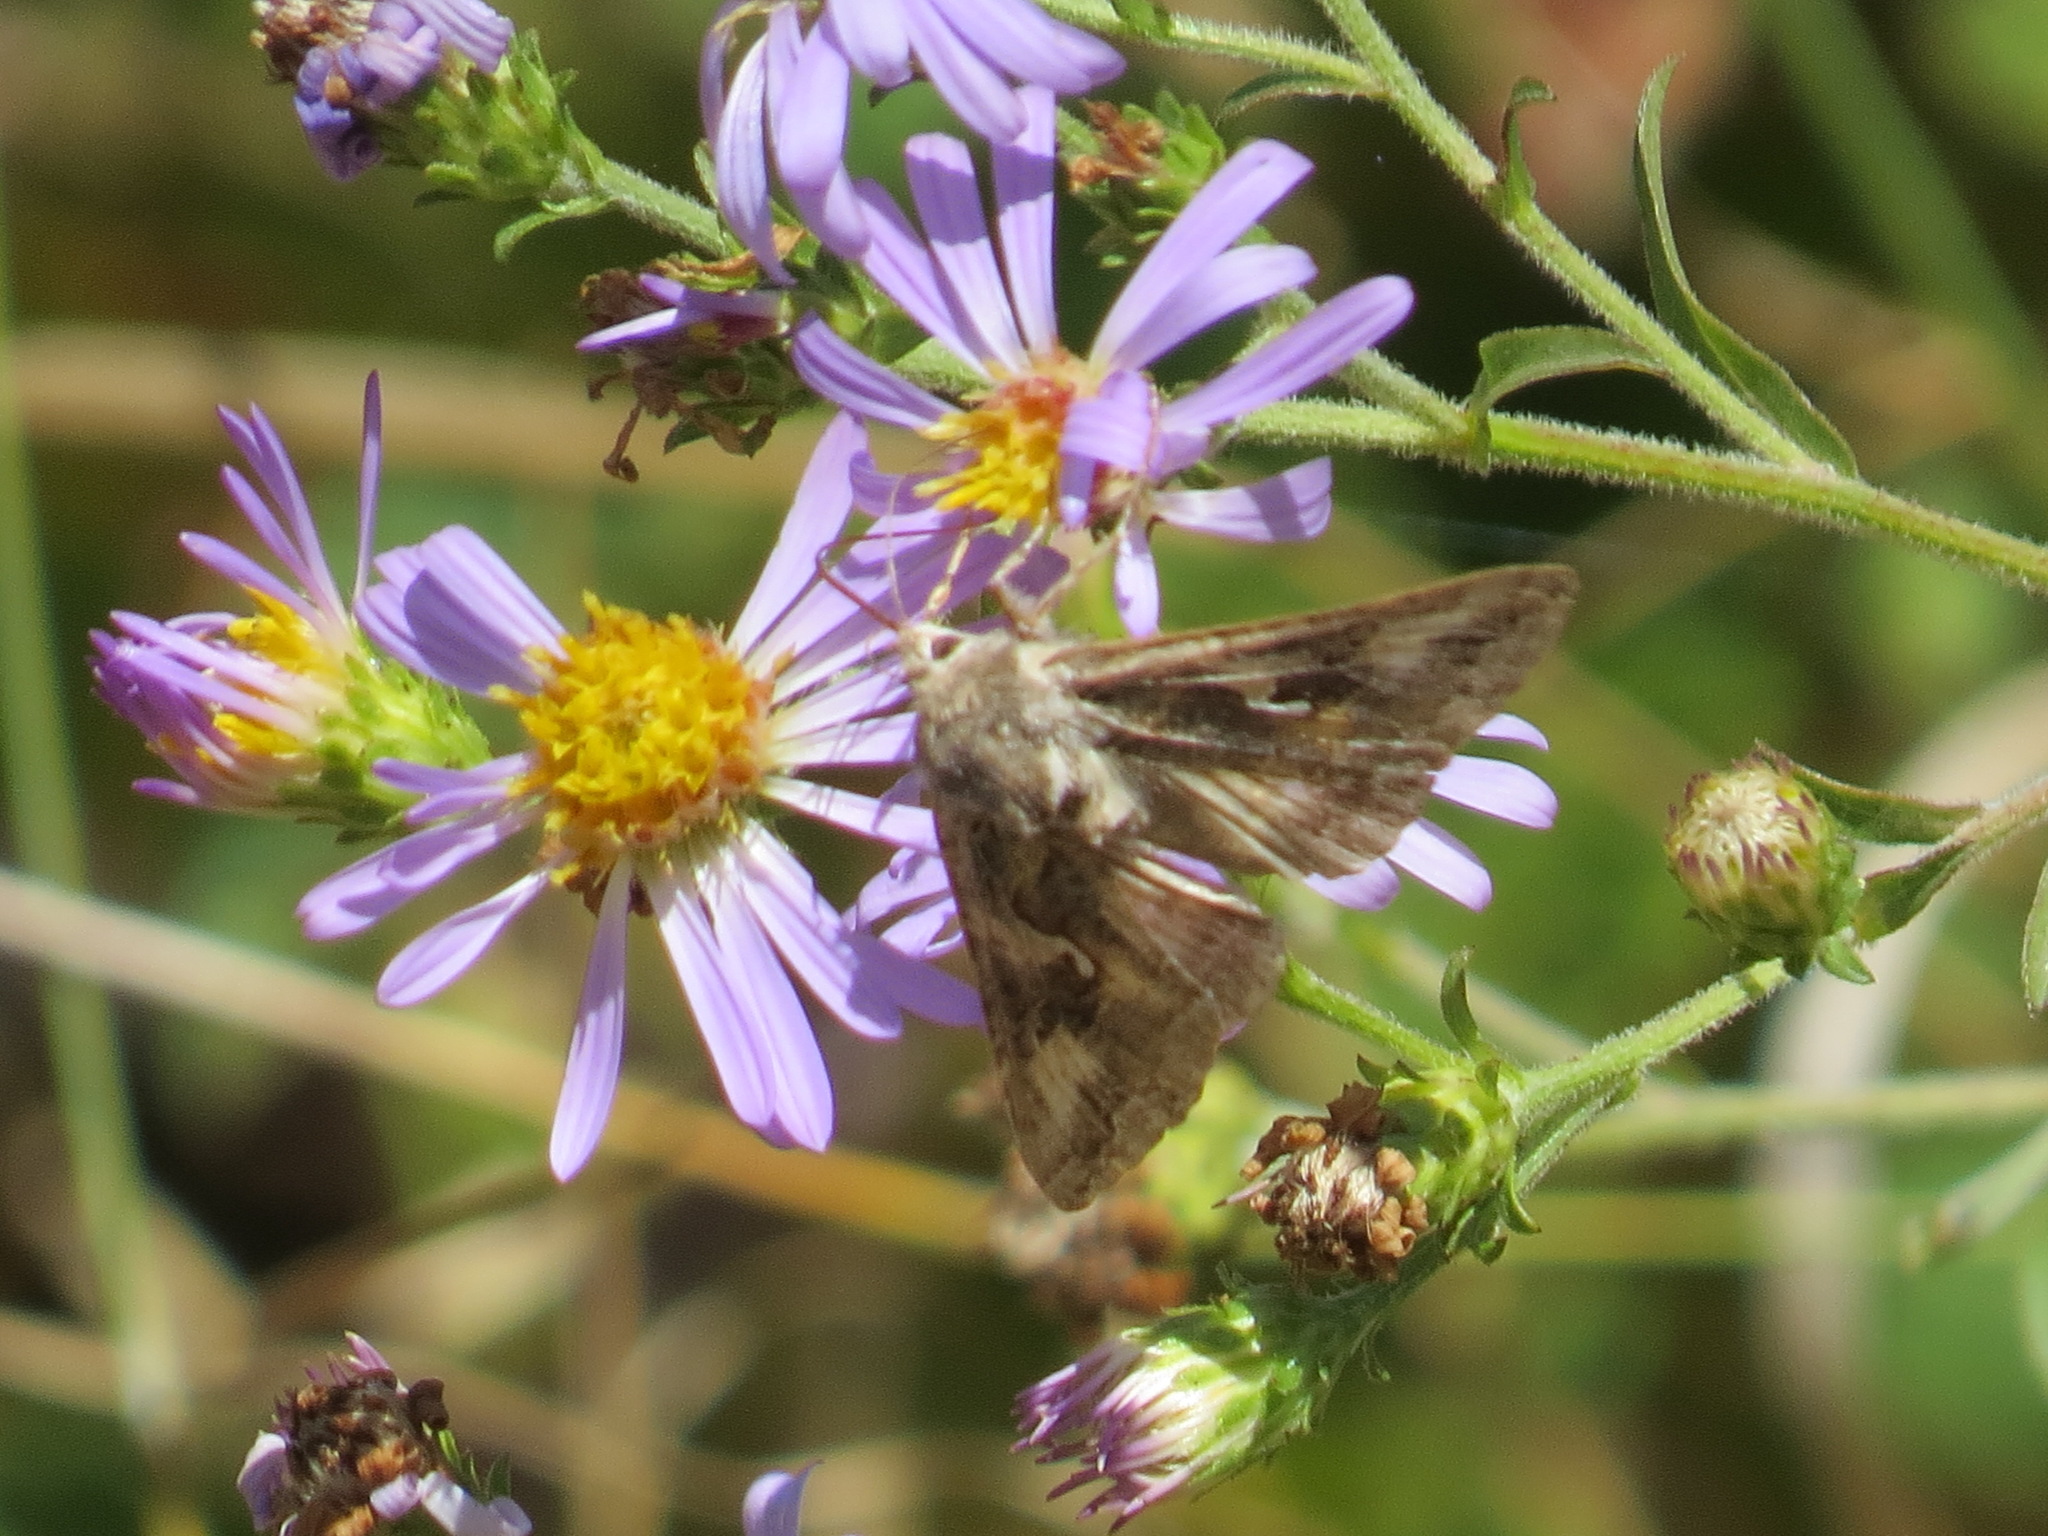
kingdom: Animalia
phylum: Arthropoda
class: Insecta
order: Lepidoptera
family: Noctuidae
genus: Autographa
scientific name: Autographa californica
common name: Alfalfa looper
